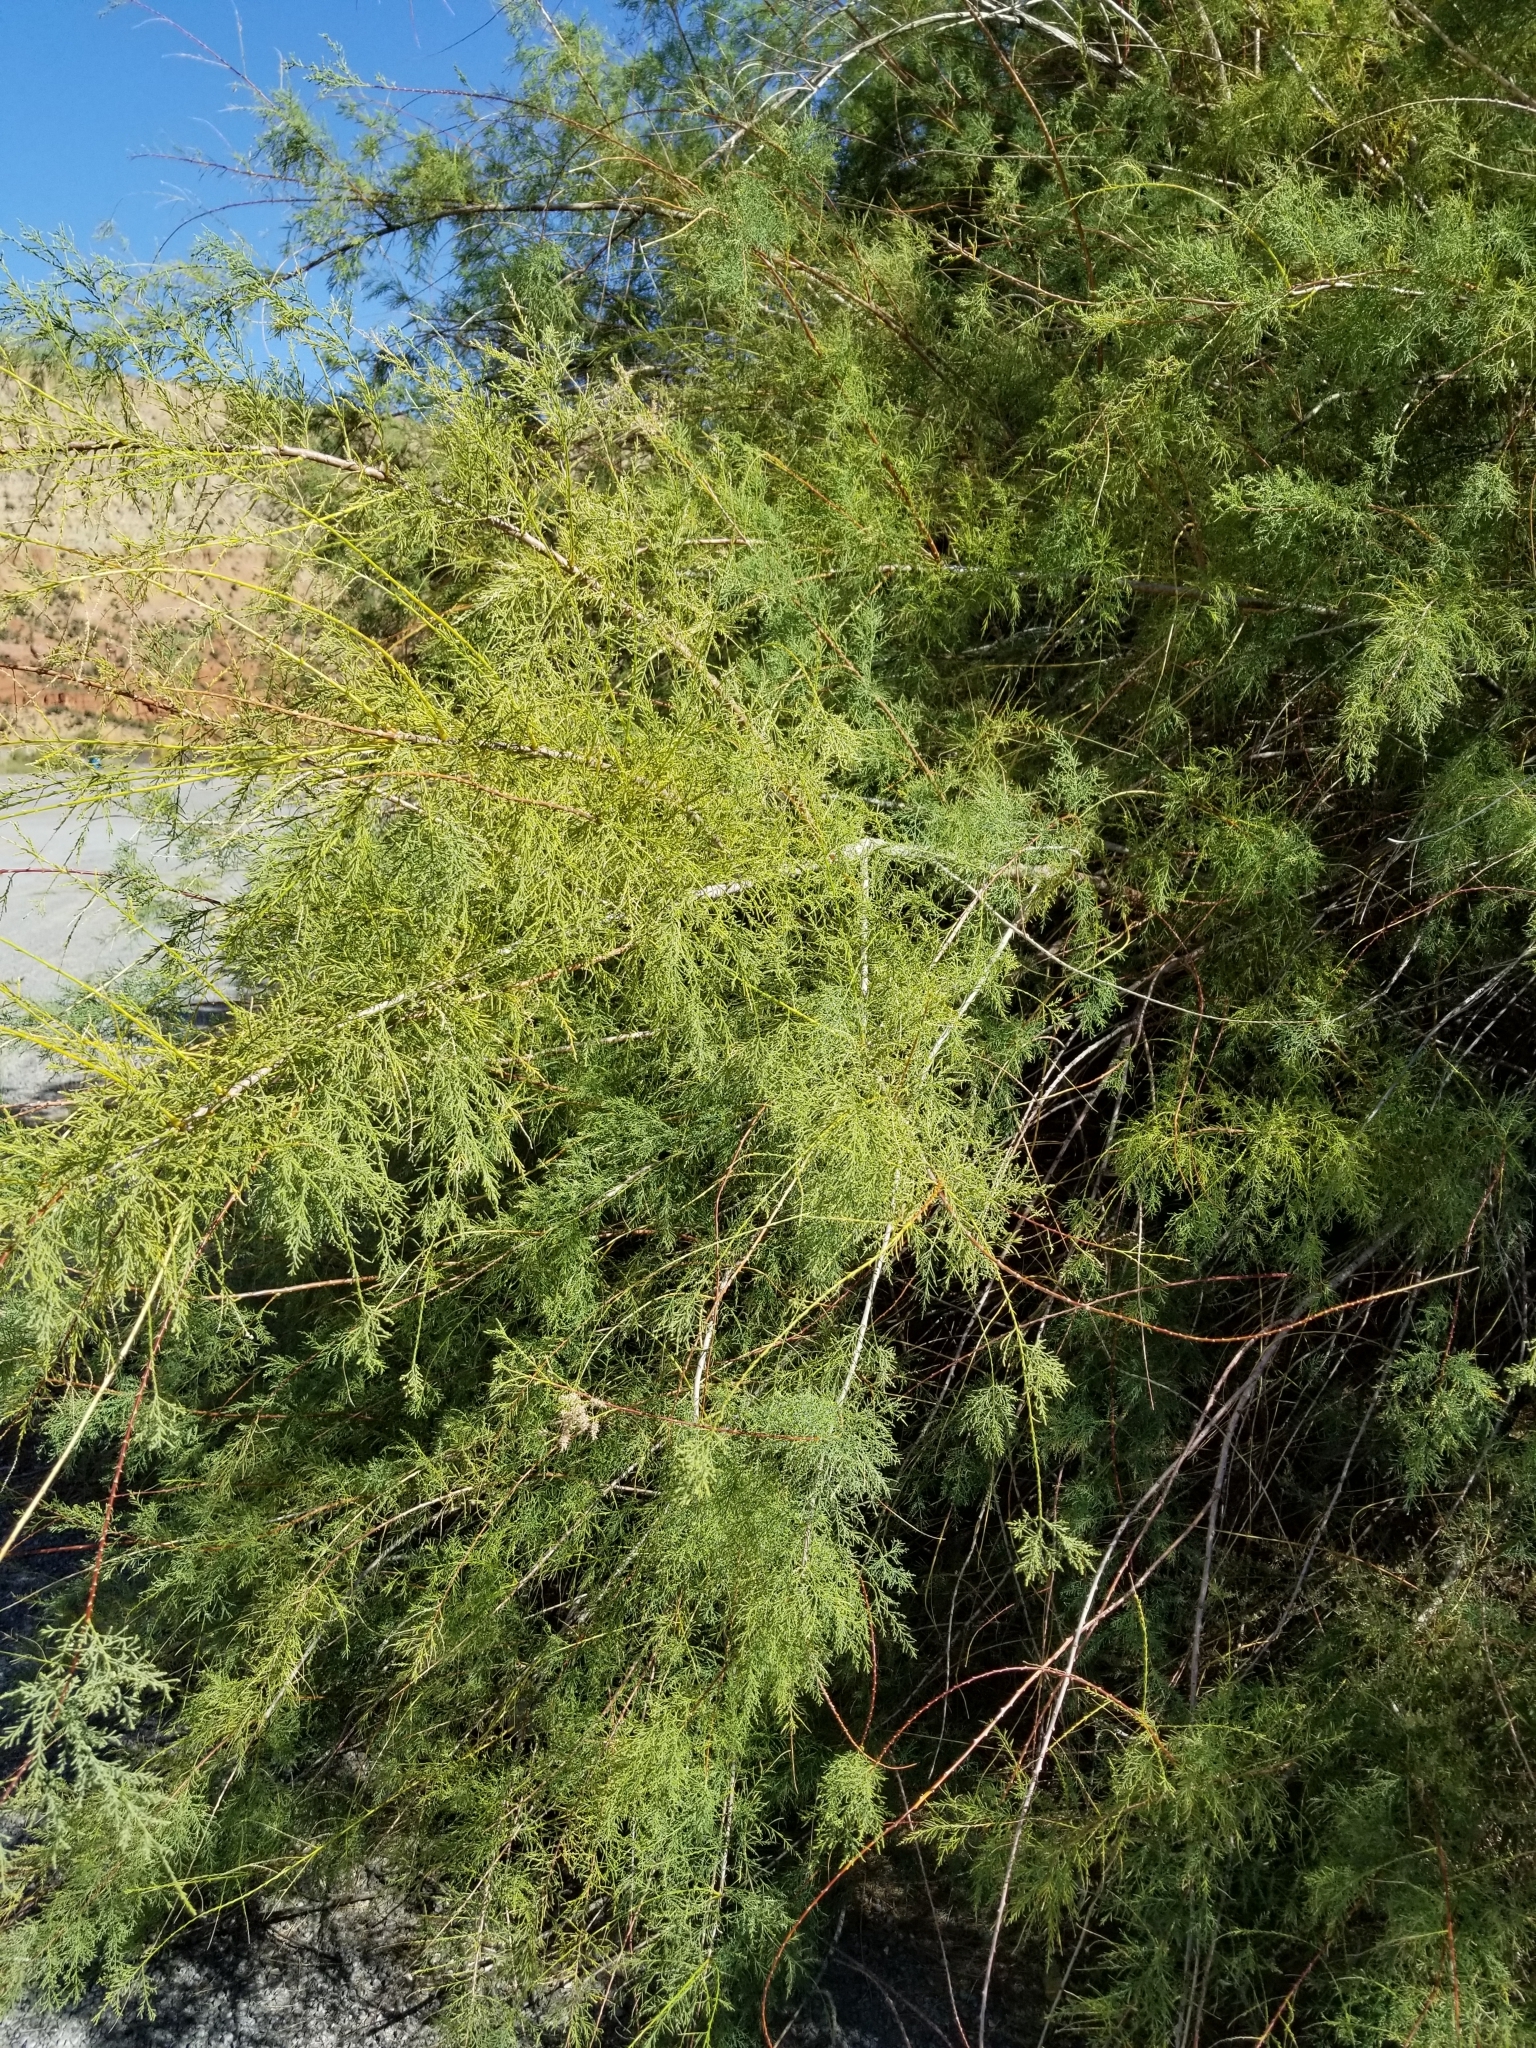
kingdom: Plantae
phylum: Tracheophyta
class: Magnoliopsida
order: Caryophyllales
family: Tamaricaceae
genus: Tamarix
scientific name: Tamarix ramosissima
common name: Pink tamarisk
